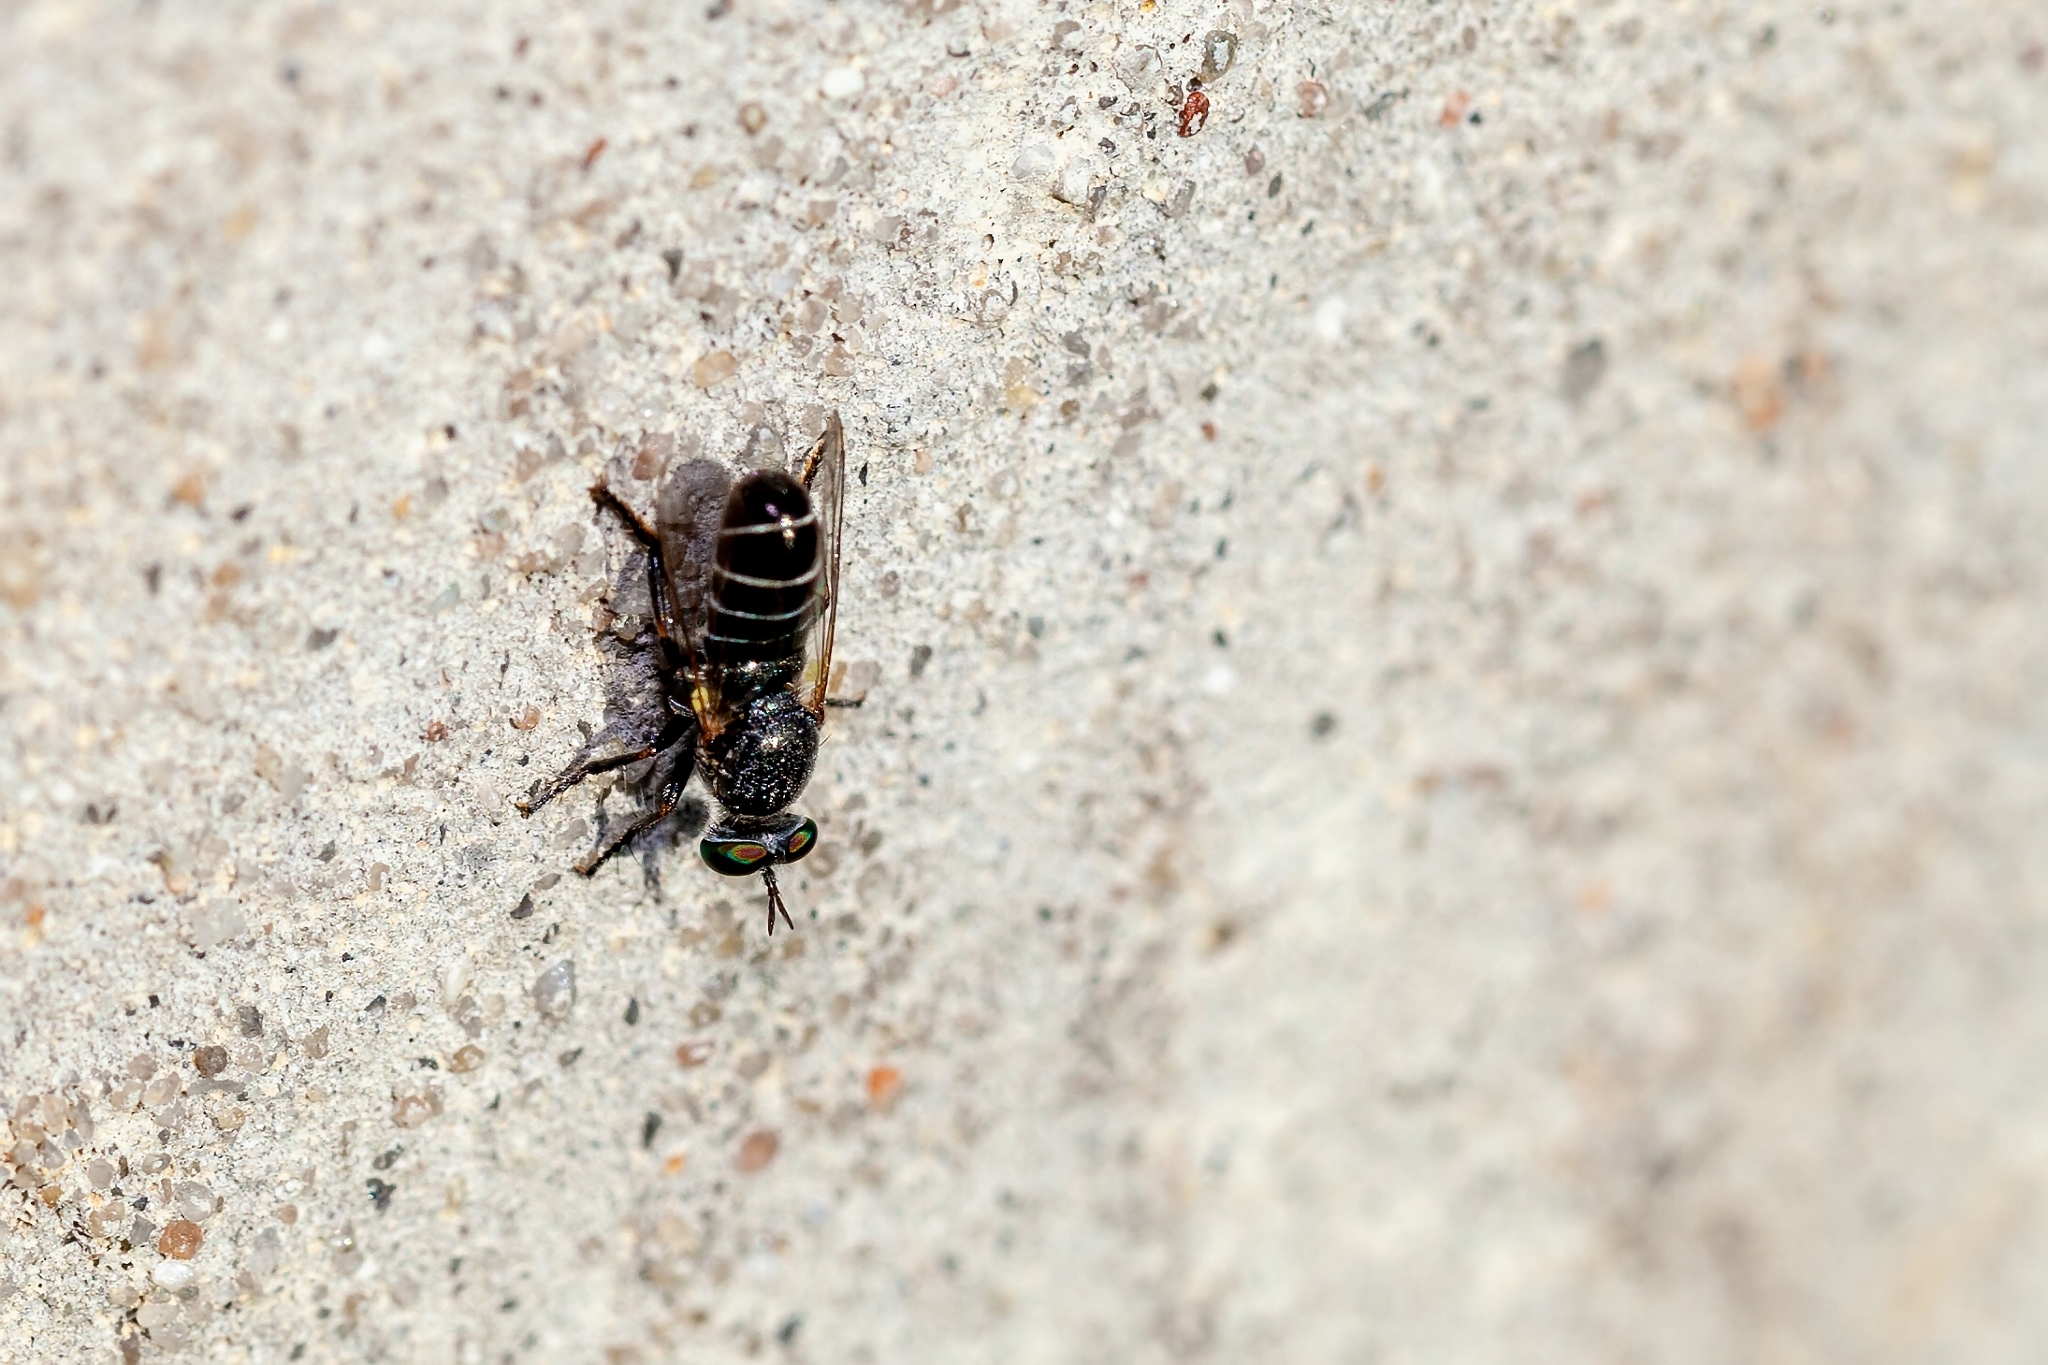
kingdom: Animalia
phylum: Arthropoda
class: Insecta
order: Diptera
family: Asilidae
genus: Atomosia
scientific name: Atomosia melanopogon
